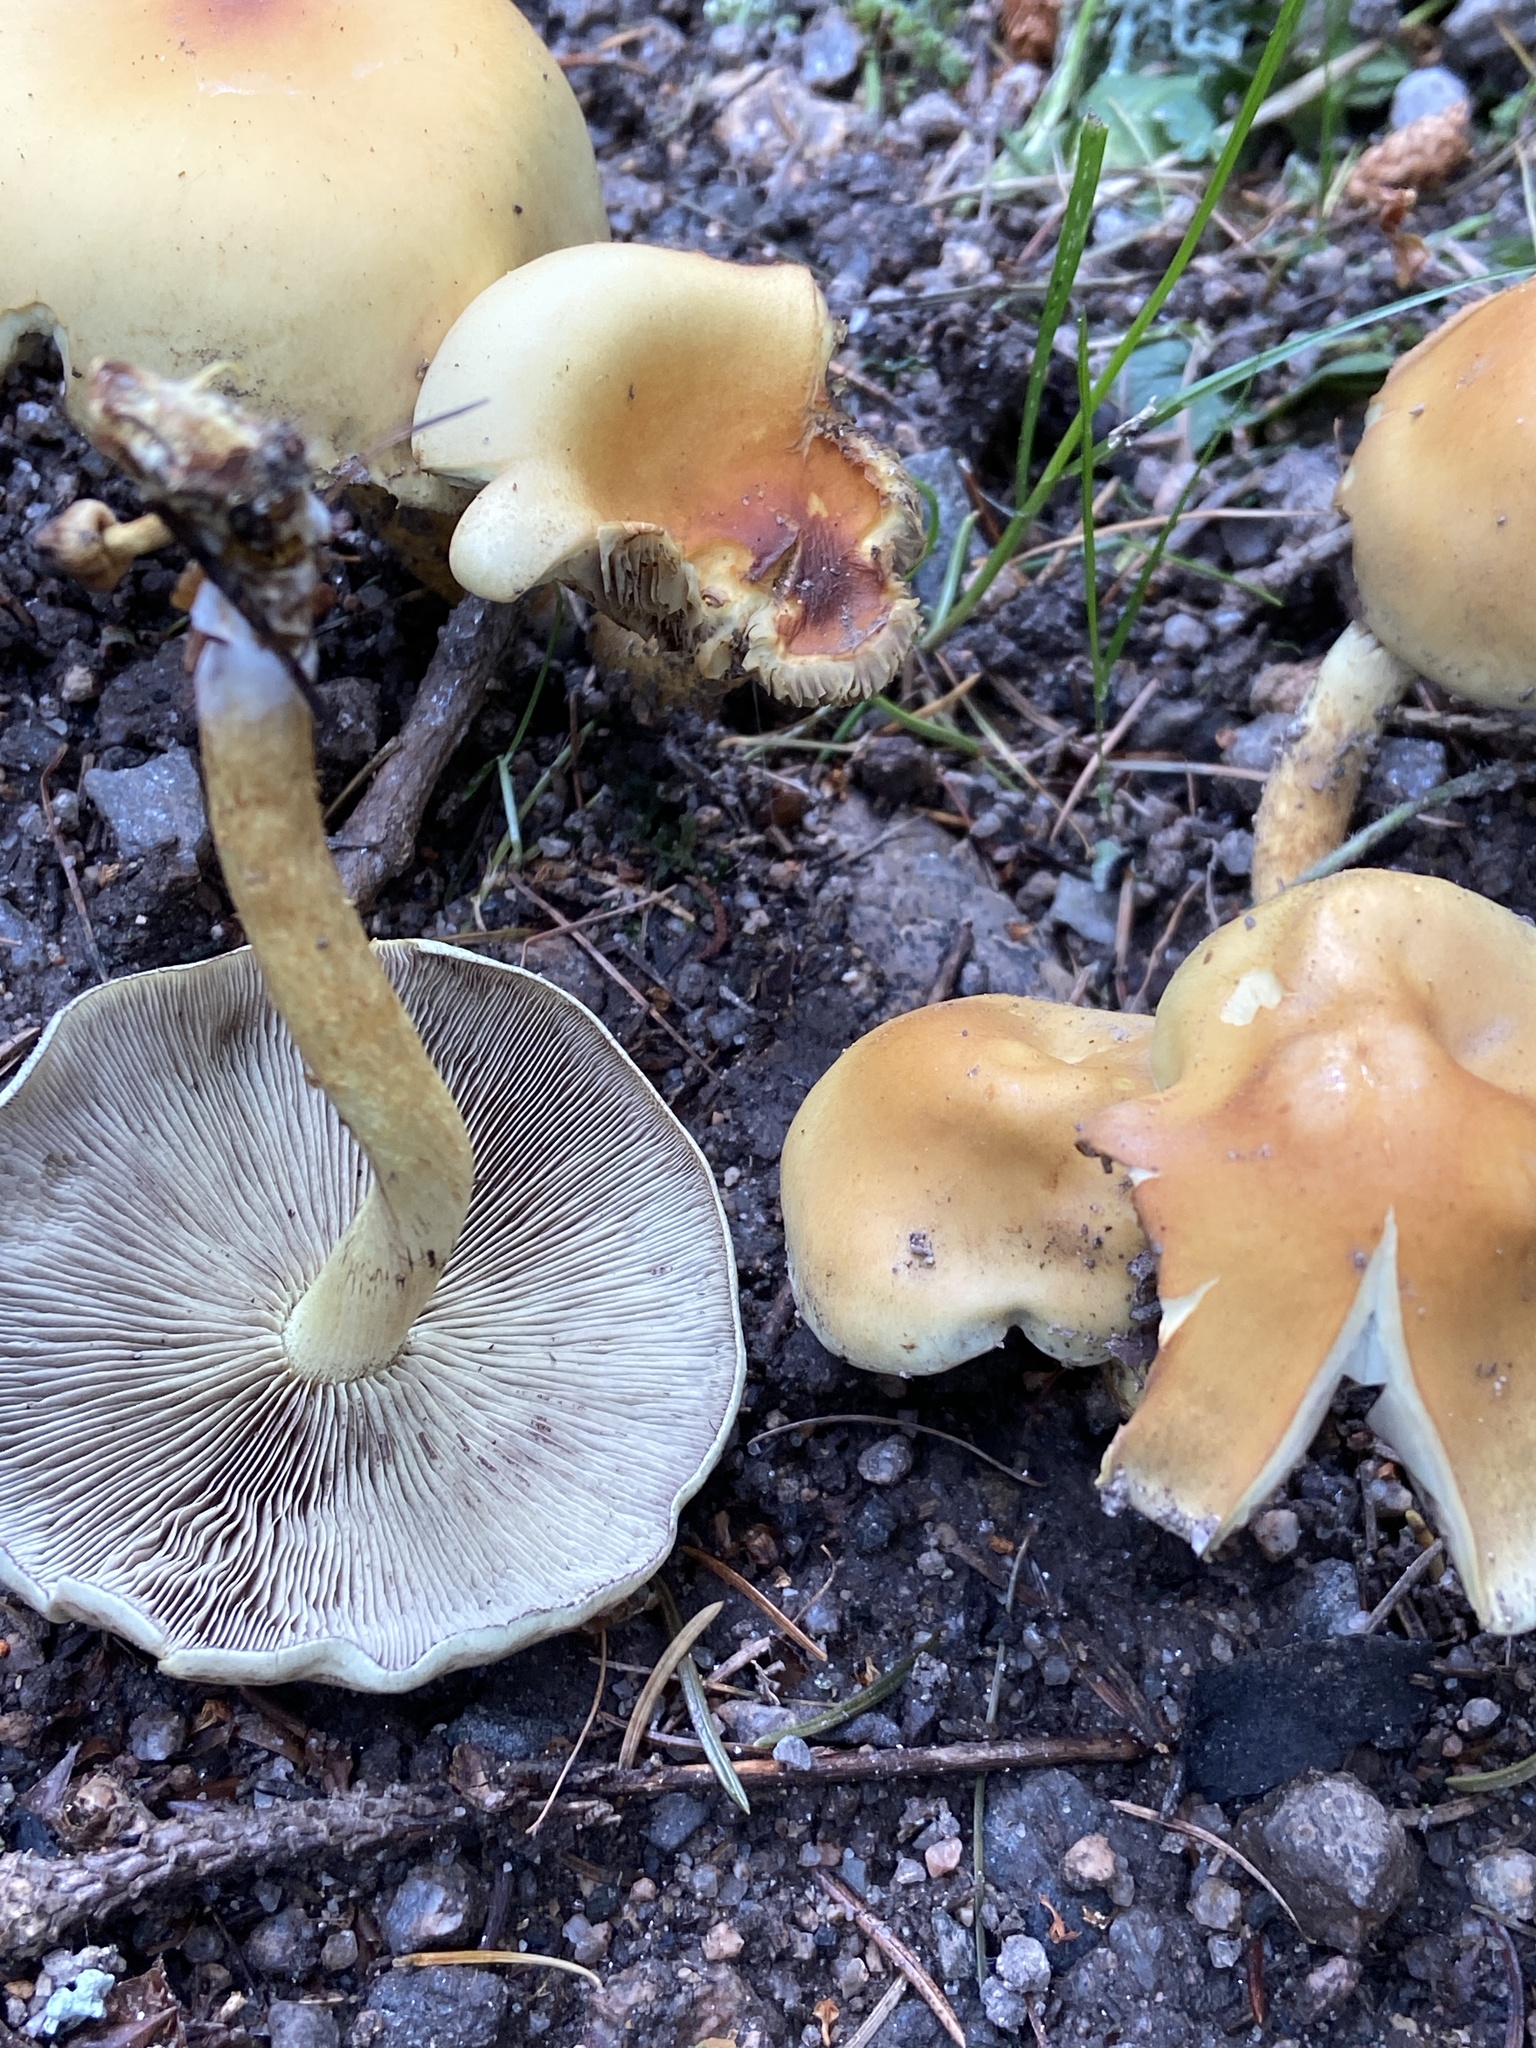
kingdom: Fungi
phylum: Basidiomycota
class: Agaricomycetes
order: Agaricales
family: Strophariaceae
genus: Hypholoma
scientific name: Hypholoma fasciculare
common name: Sulphur tuft
